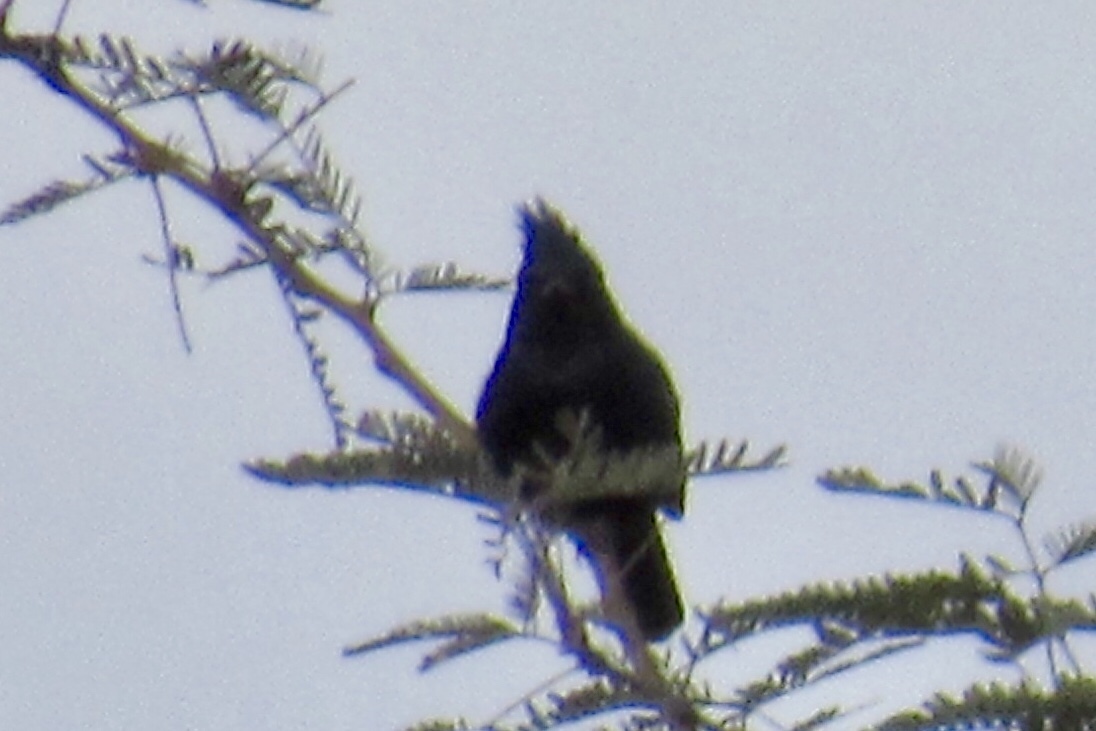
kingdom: Animalia
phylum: Chordata
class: Aves
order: Passeriformes
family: Ptilogonatidae
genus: Phainopepla
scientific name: Phainopepla nitens
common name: Phainopepla
